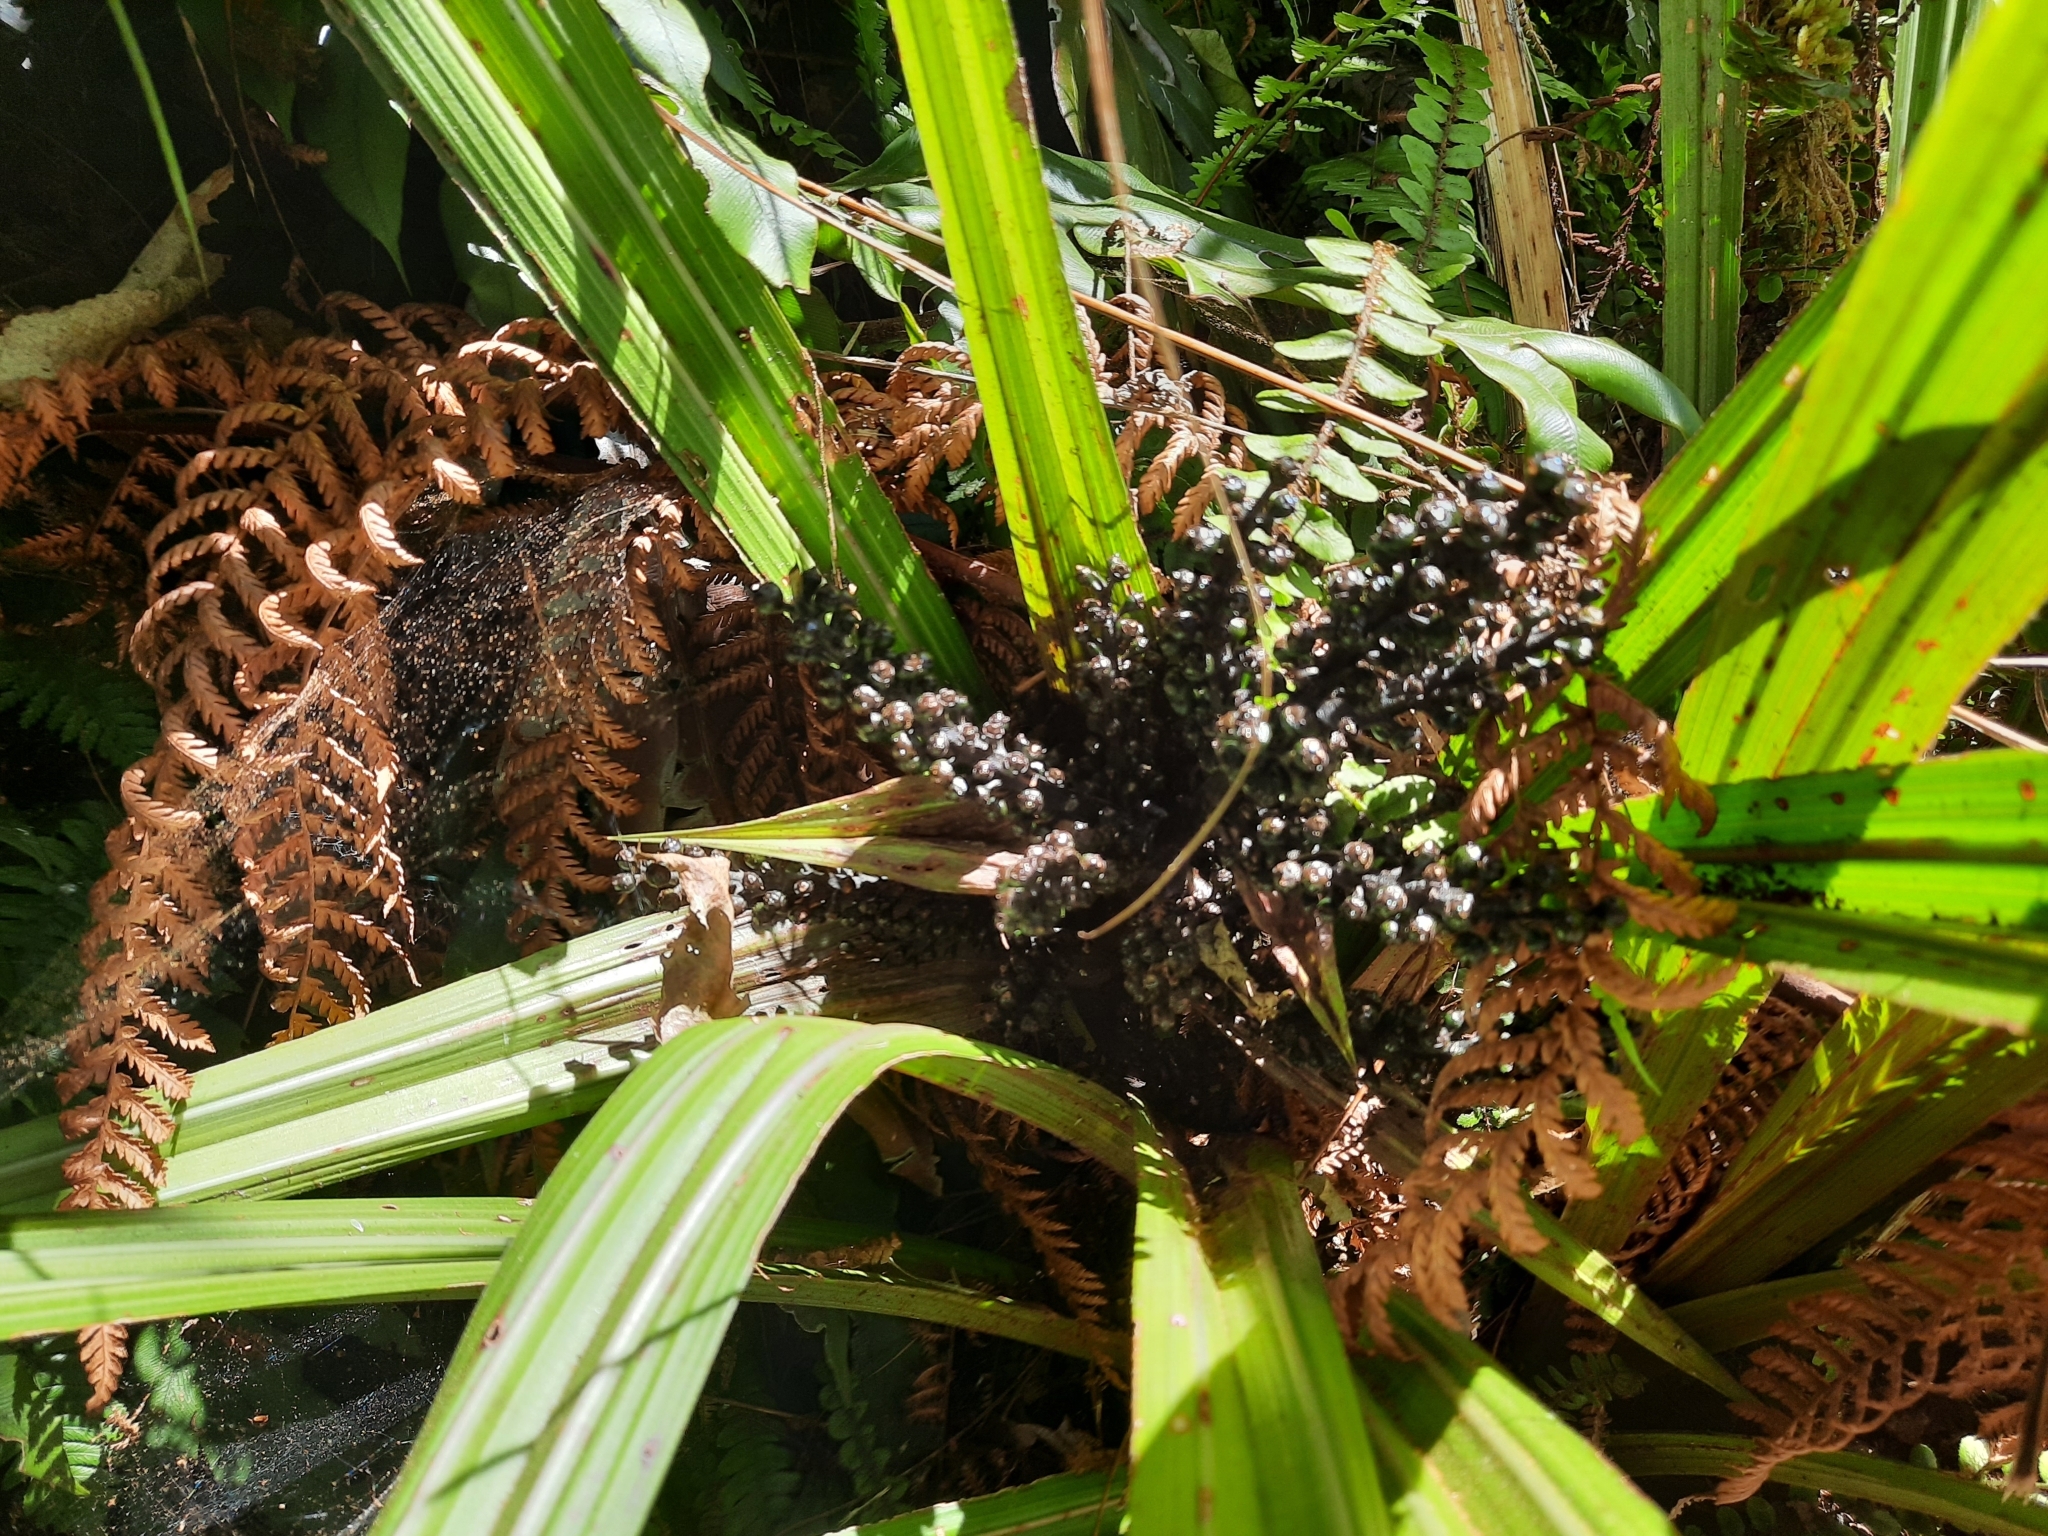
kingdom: Plantae
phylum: Tracheophyta
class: Liliopsida
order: Asparagales
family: Asteliaceae
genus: Astelia
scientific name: Astelia fragrans
